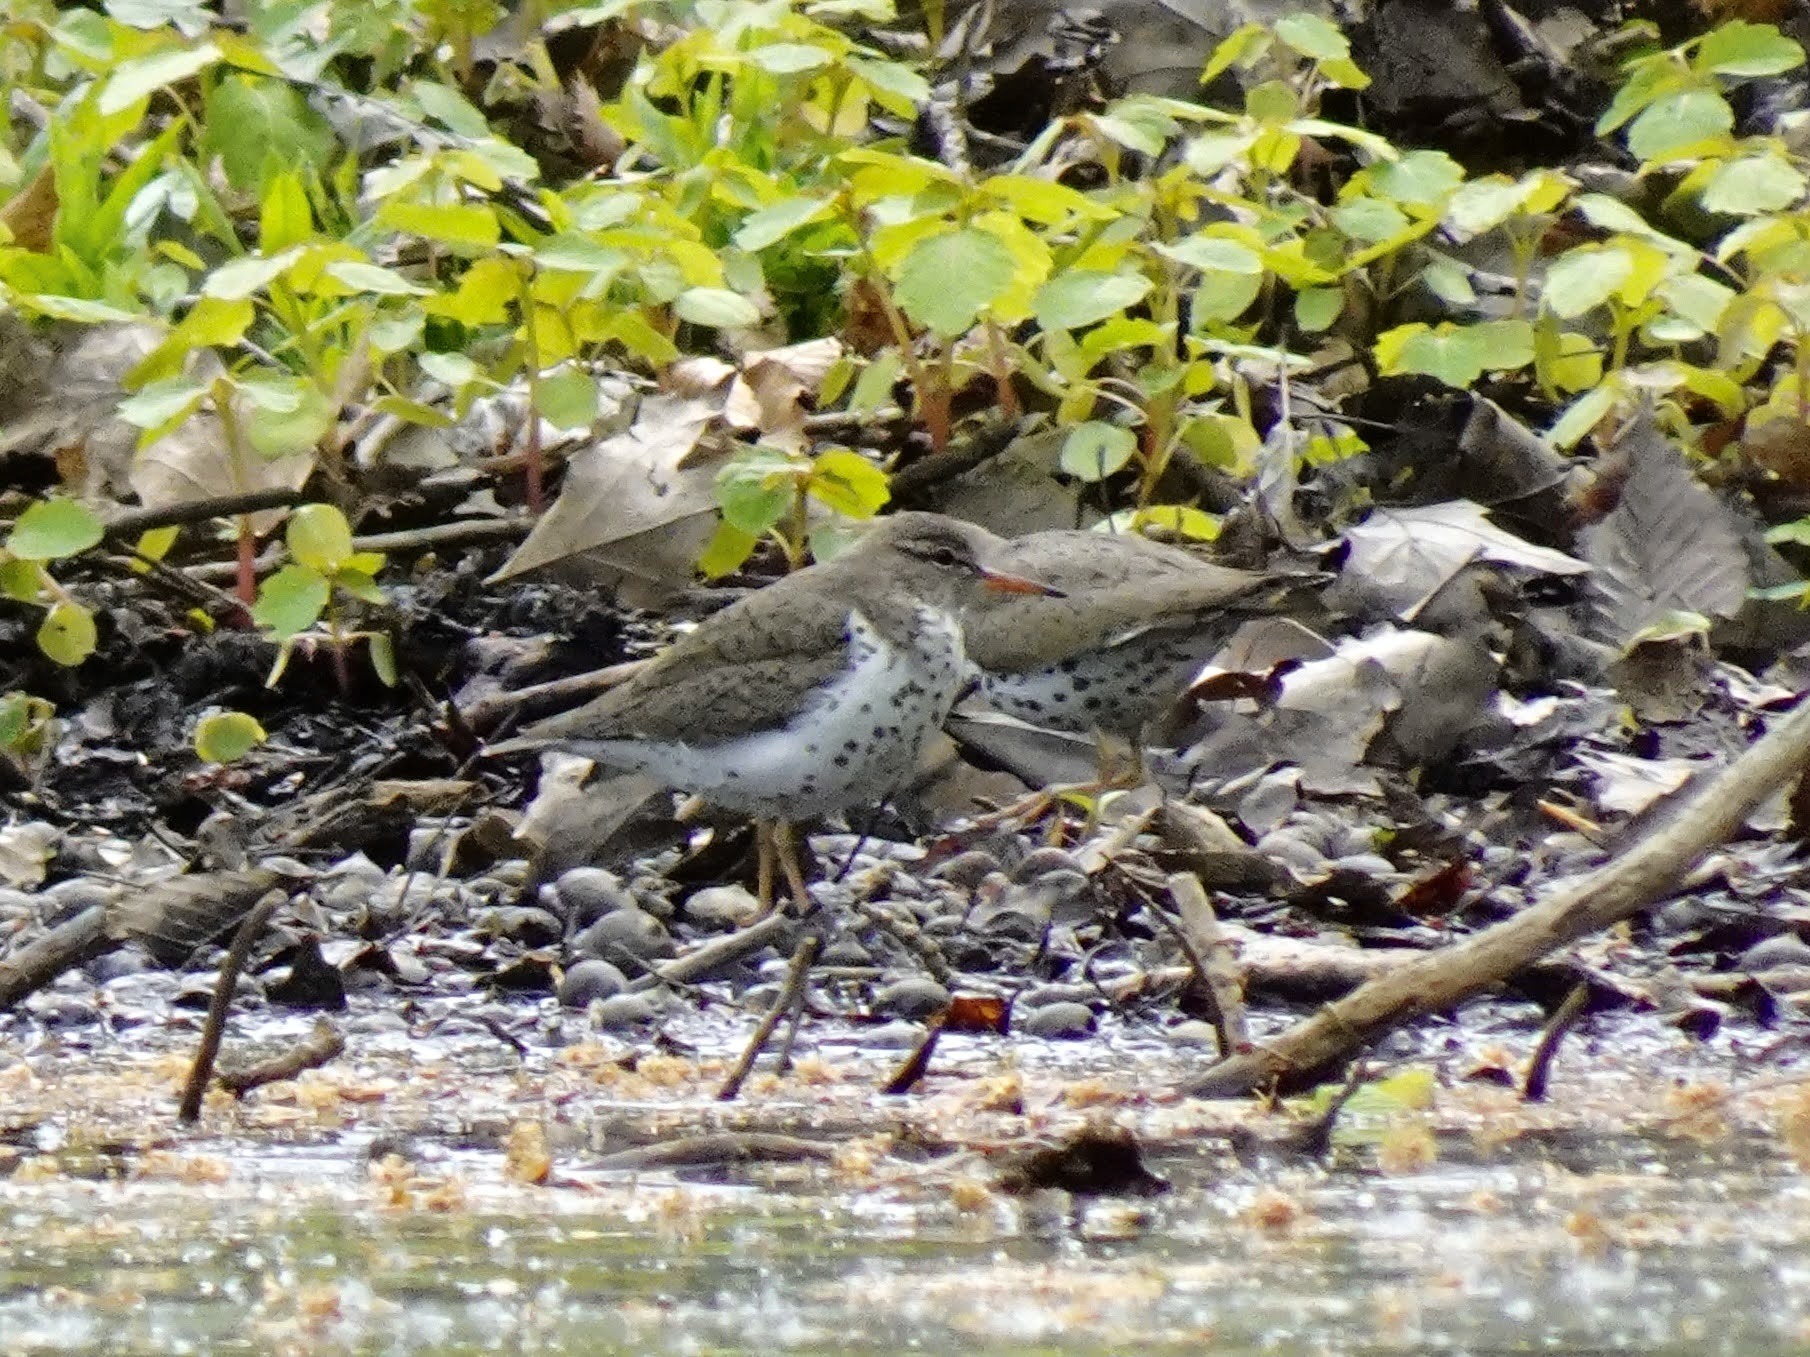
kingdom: Animalia
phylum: Chordata
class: Aves
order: Charadriiformes
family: Scolopacidae
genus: Actitis
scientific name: Actitis macularius
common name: Spotted sandpiper
